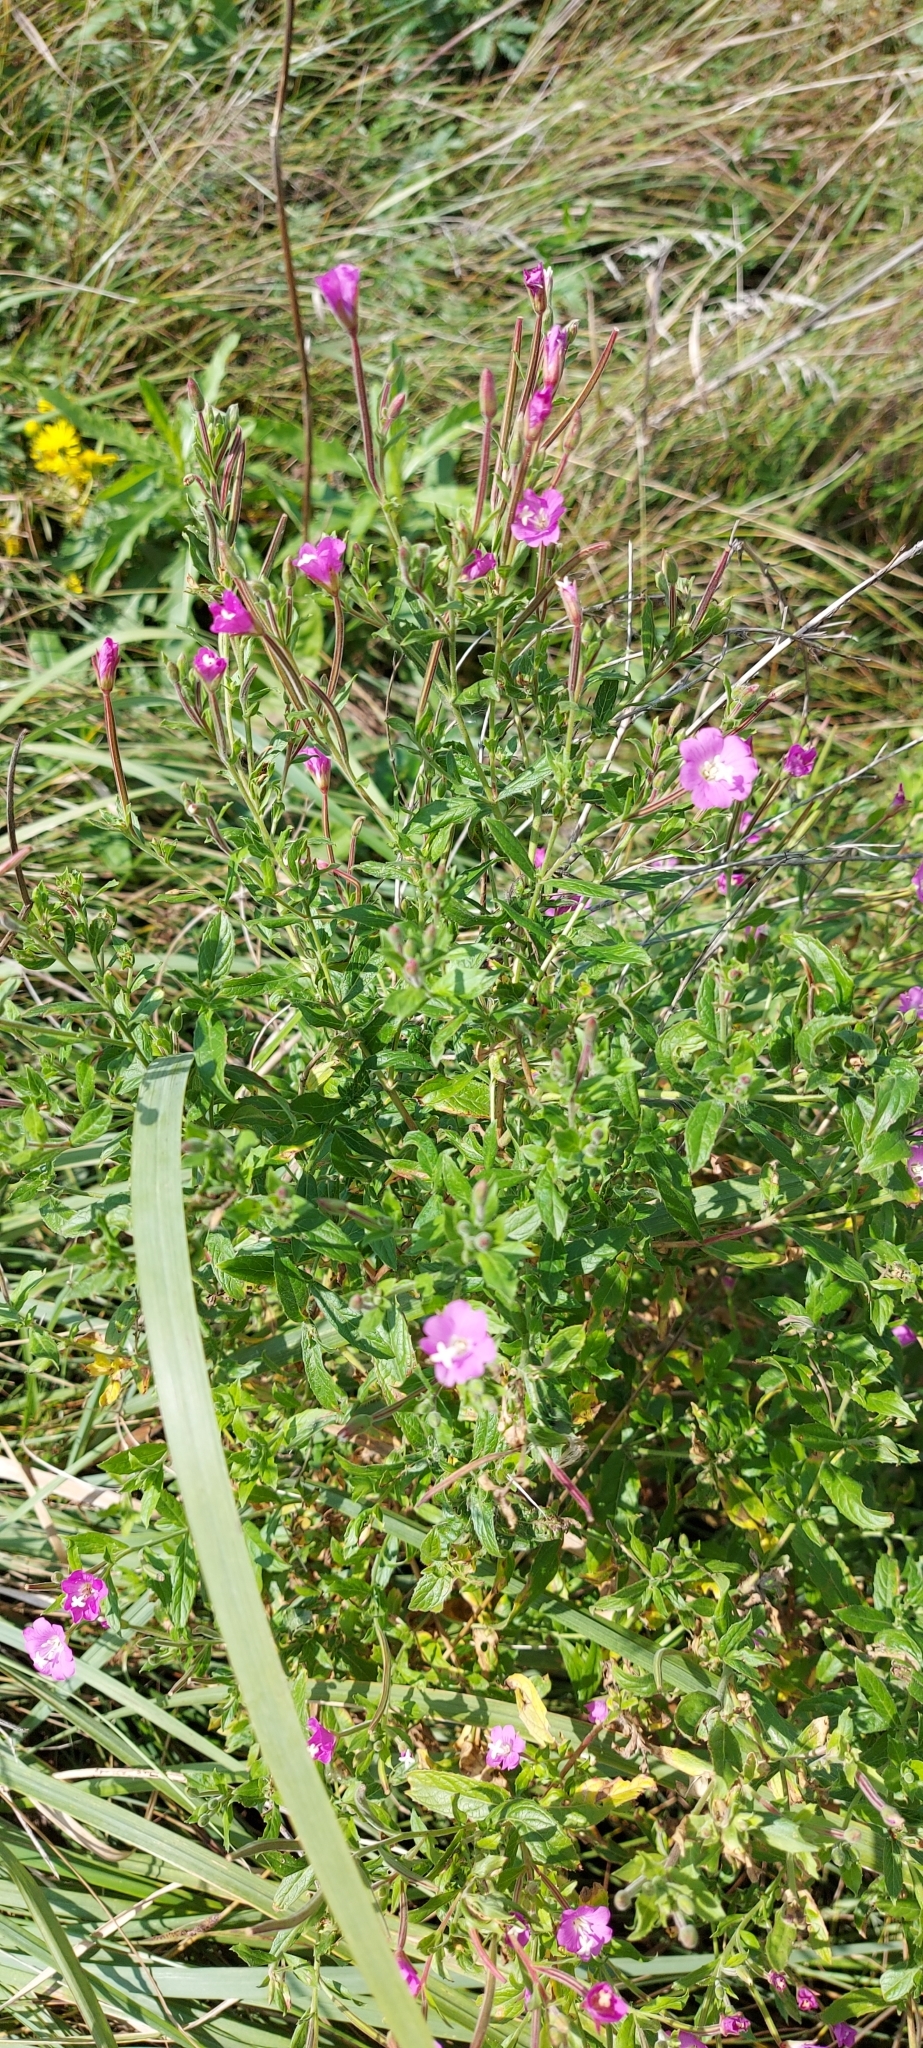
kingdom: Plantae
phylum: Tracheophyta
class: Magnoliopsida
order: Myrtales
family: Onagraceae
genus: Epilobium
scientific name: Epilobium hirsutum
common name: Great willowherb
